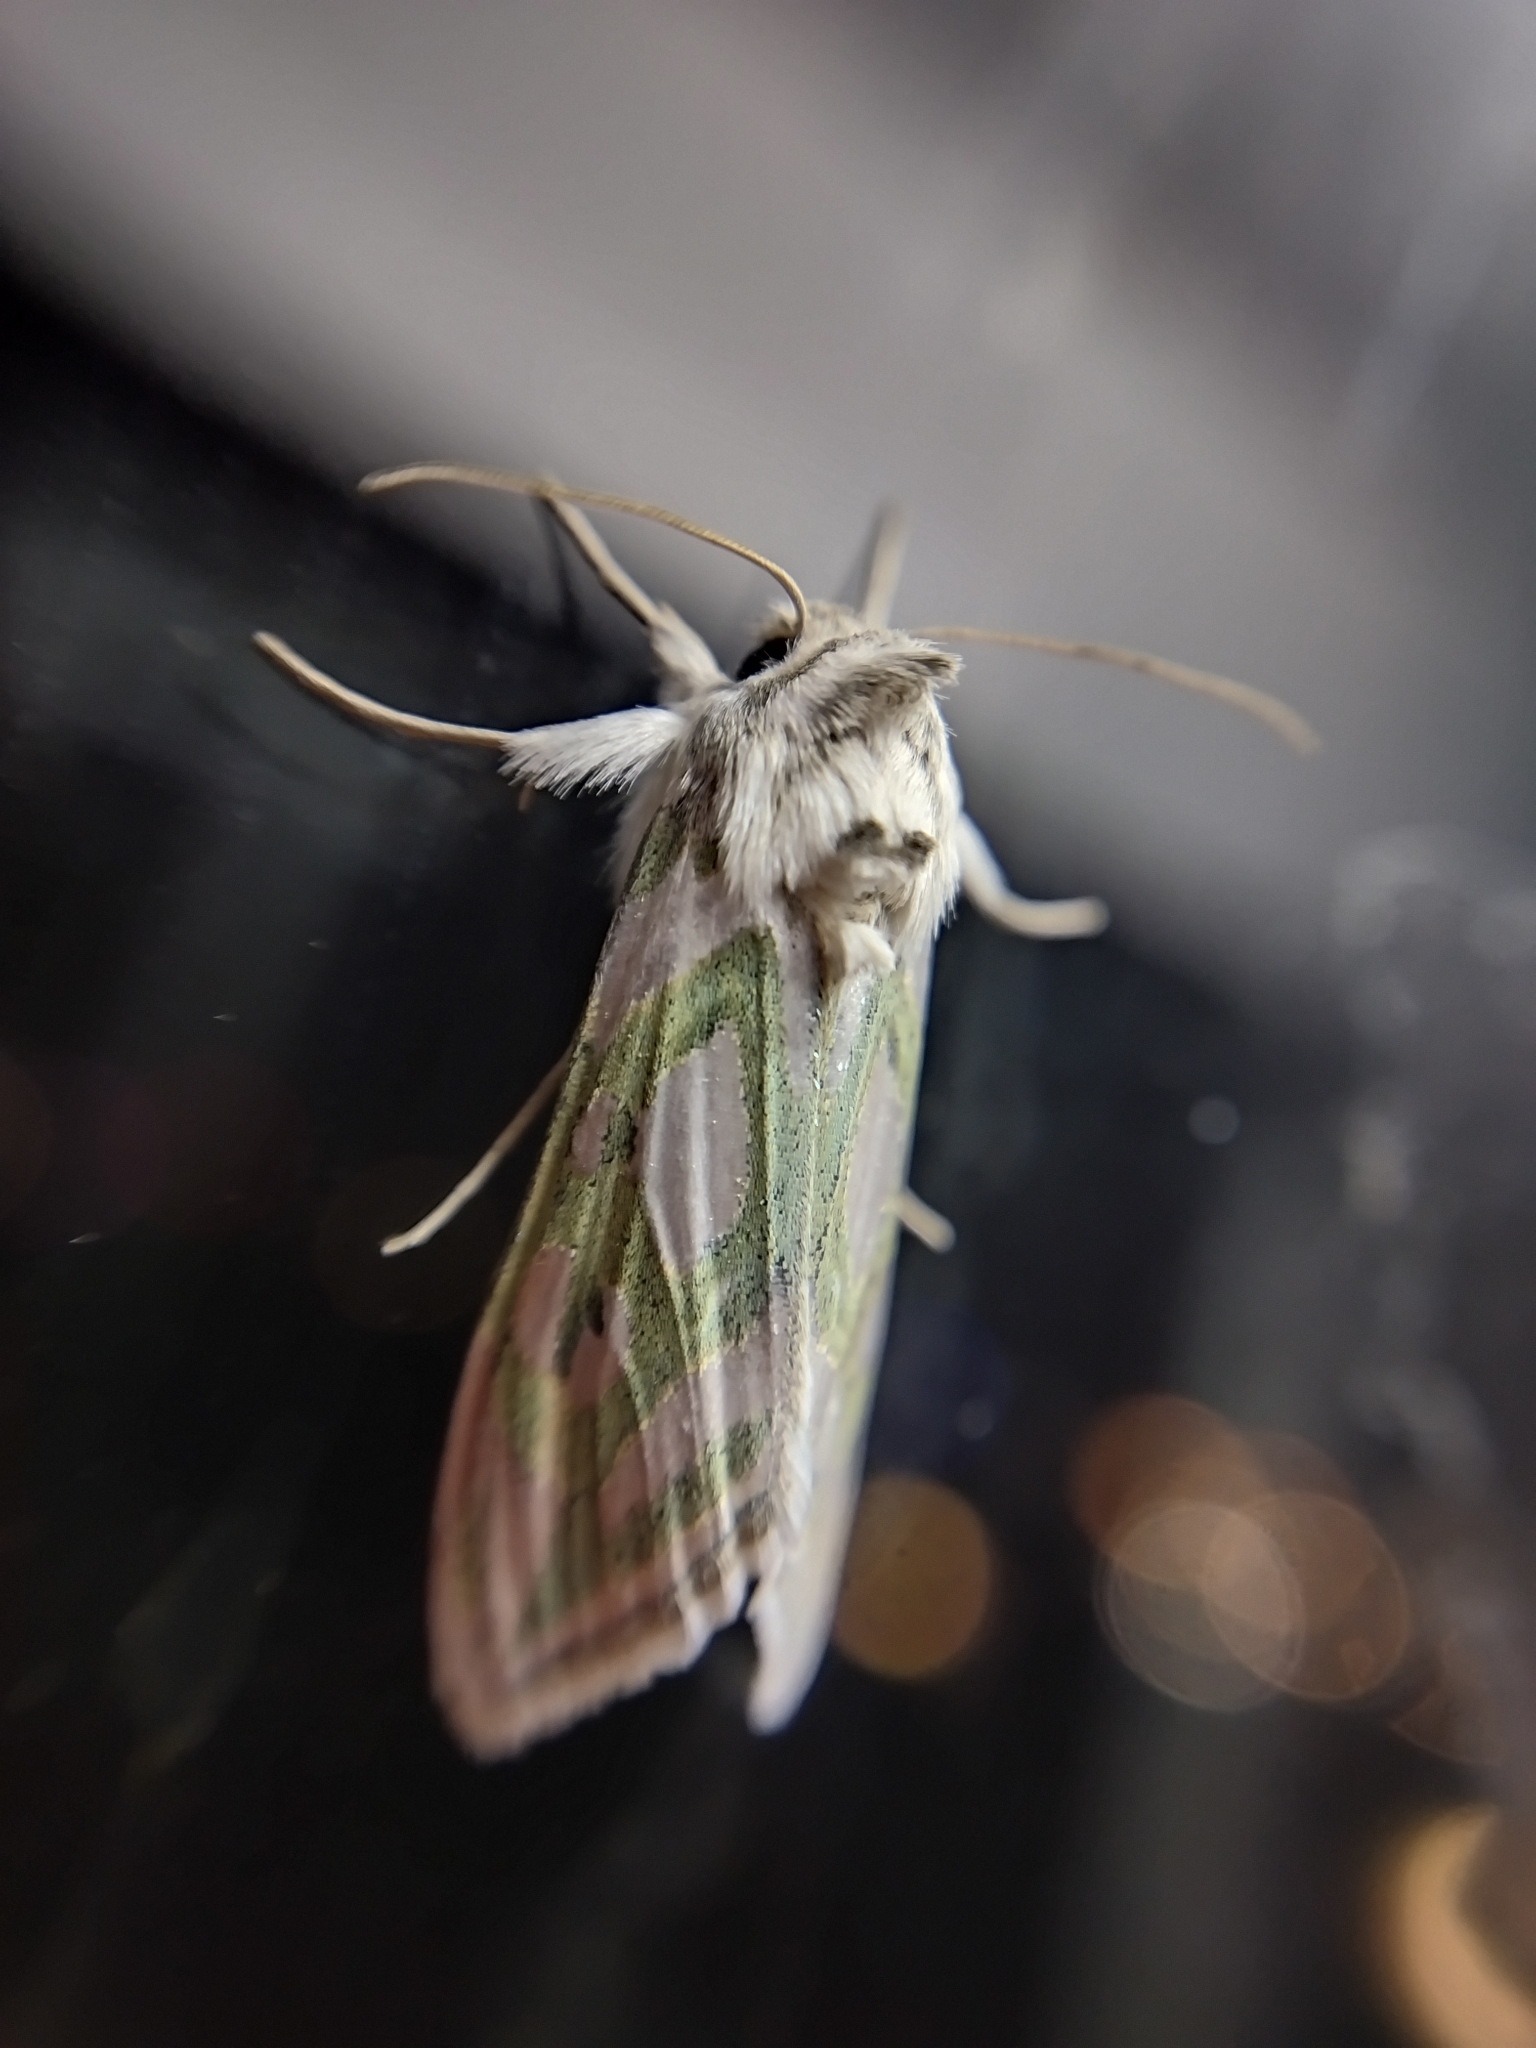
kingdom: Animalia
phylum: Arthropoda
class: Insecta
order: Lepidoptera
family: Noctuidae
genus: Cucullia
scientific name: Cucullia argentea
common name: Green silver-spangled shark
